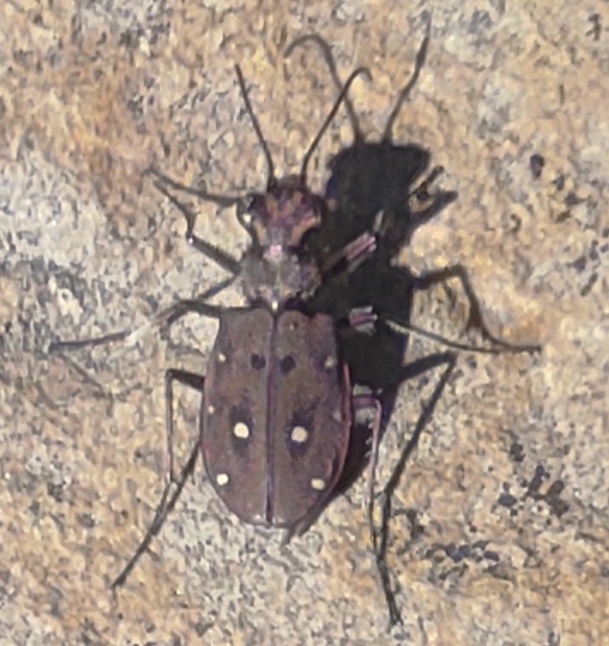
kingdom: Animalia
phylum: Arthropoda
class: Insecta
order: Coleoptera
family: Carabidae
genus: Cicindela
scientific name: Cicindela maroccana
